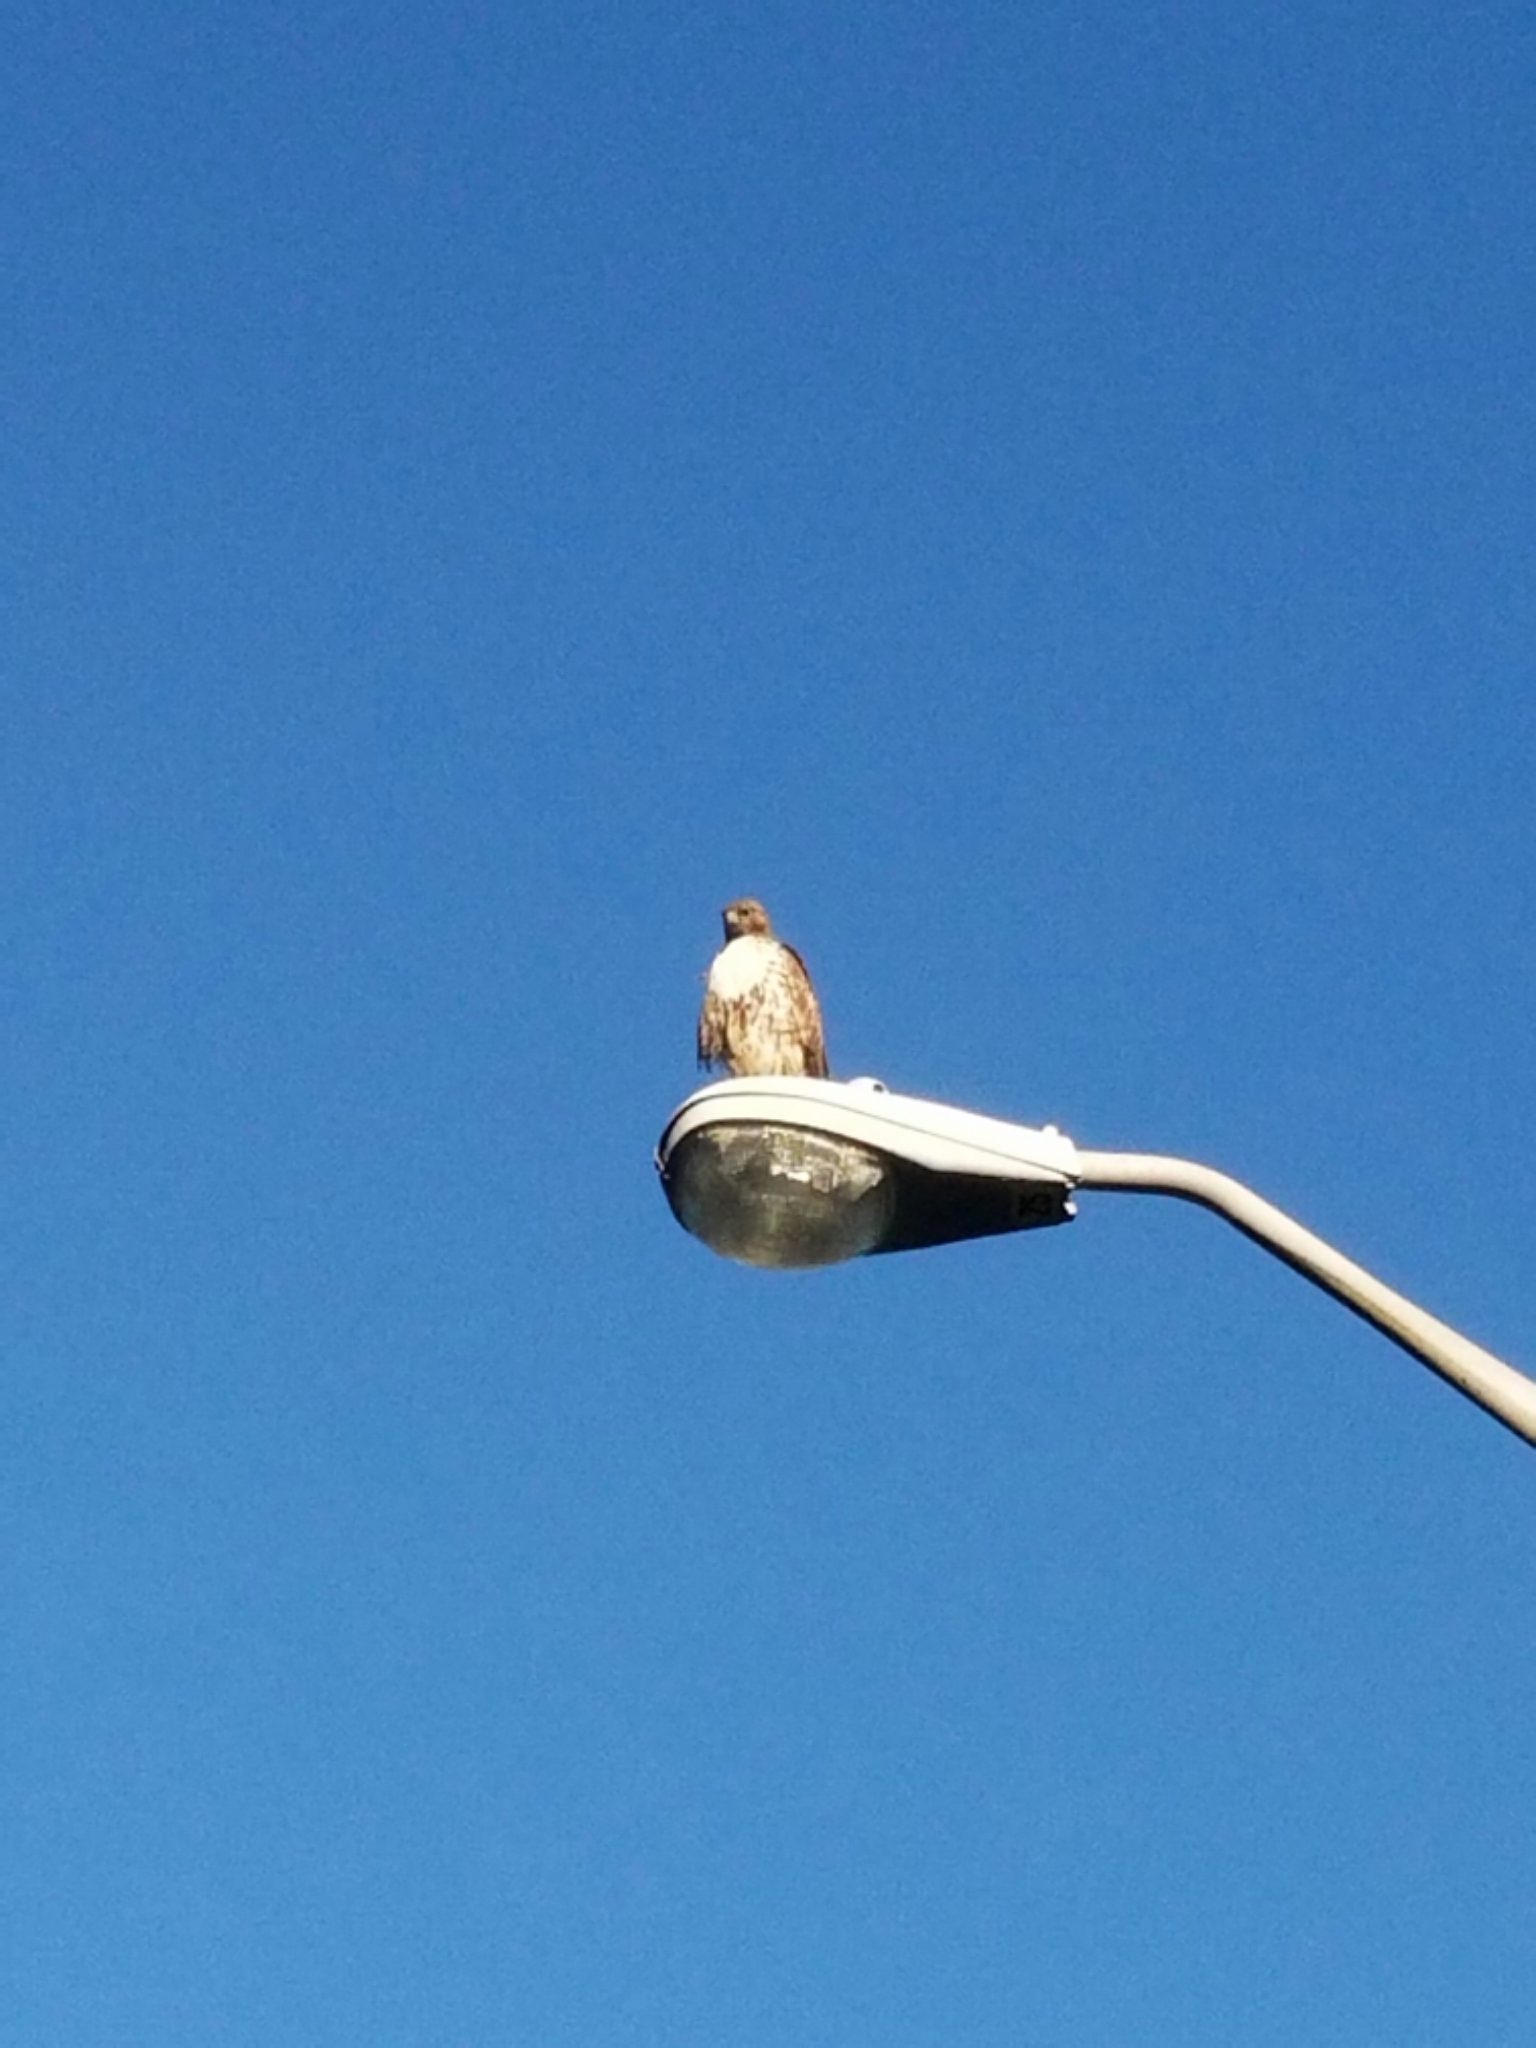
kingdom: Animalia
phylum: Chordata
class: Aves
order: Accipitriformes
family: Accipitridae
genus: Buteo
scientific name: Buteo jamaicensis
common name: Red-tailed hawk
